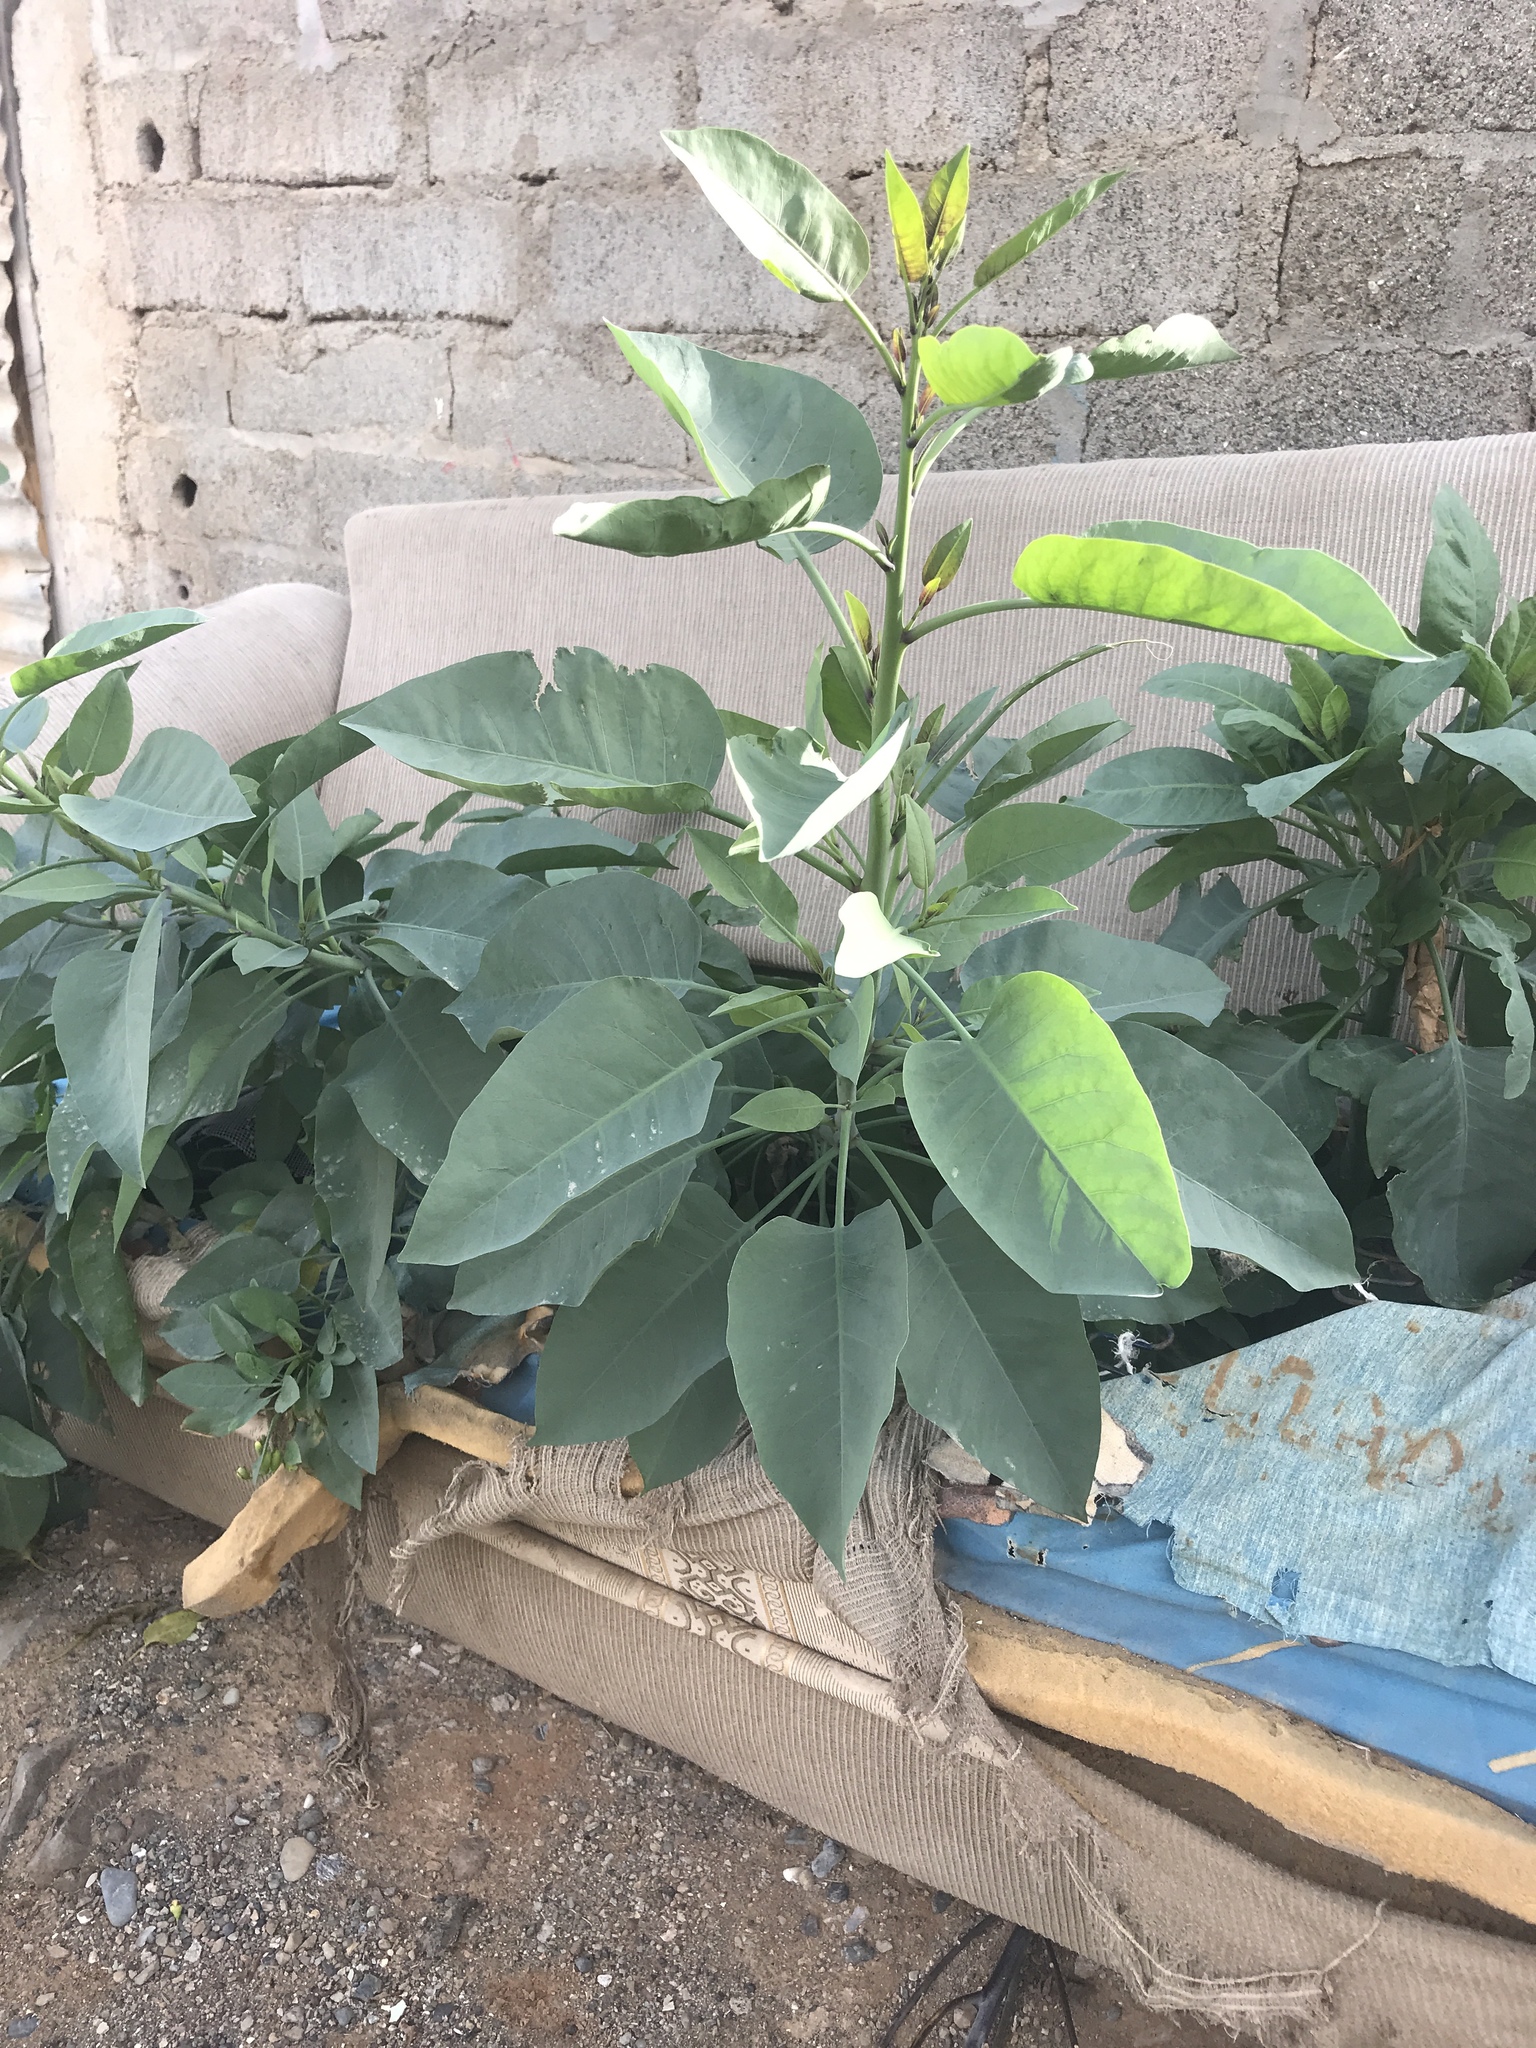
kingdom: Plantae
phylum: Tracheophyta
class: Magnoliopsida
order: Solanales
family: Solanaceae
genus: Nicotiana
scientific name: Nicotiana glauca
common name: Tree tobacco
